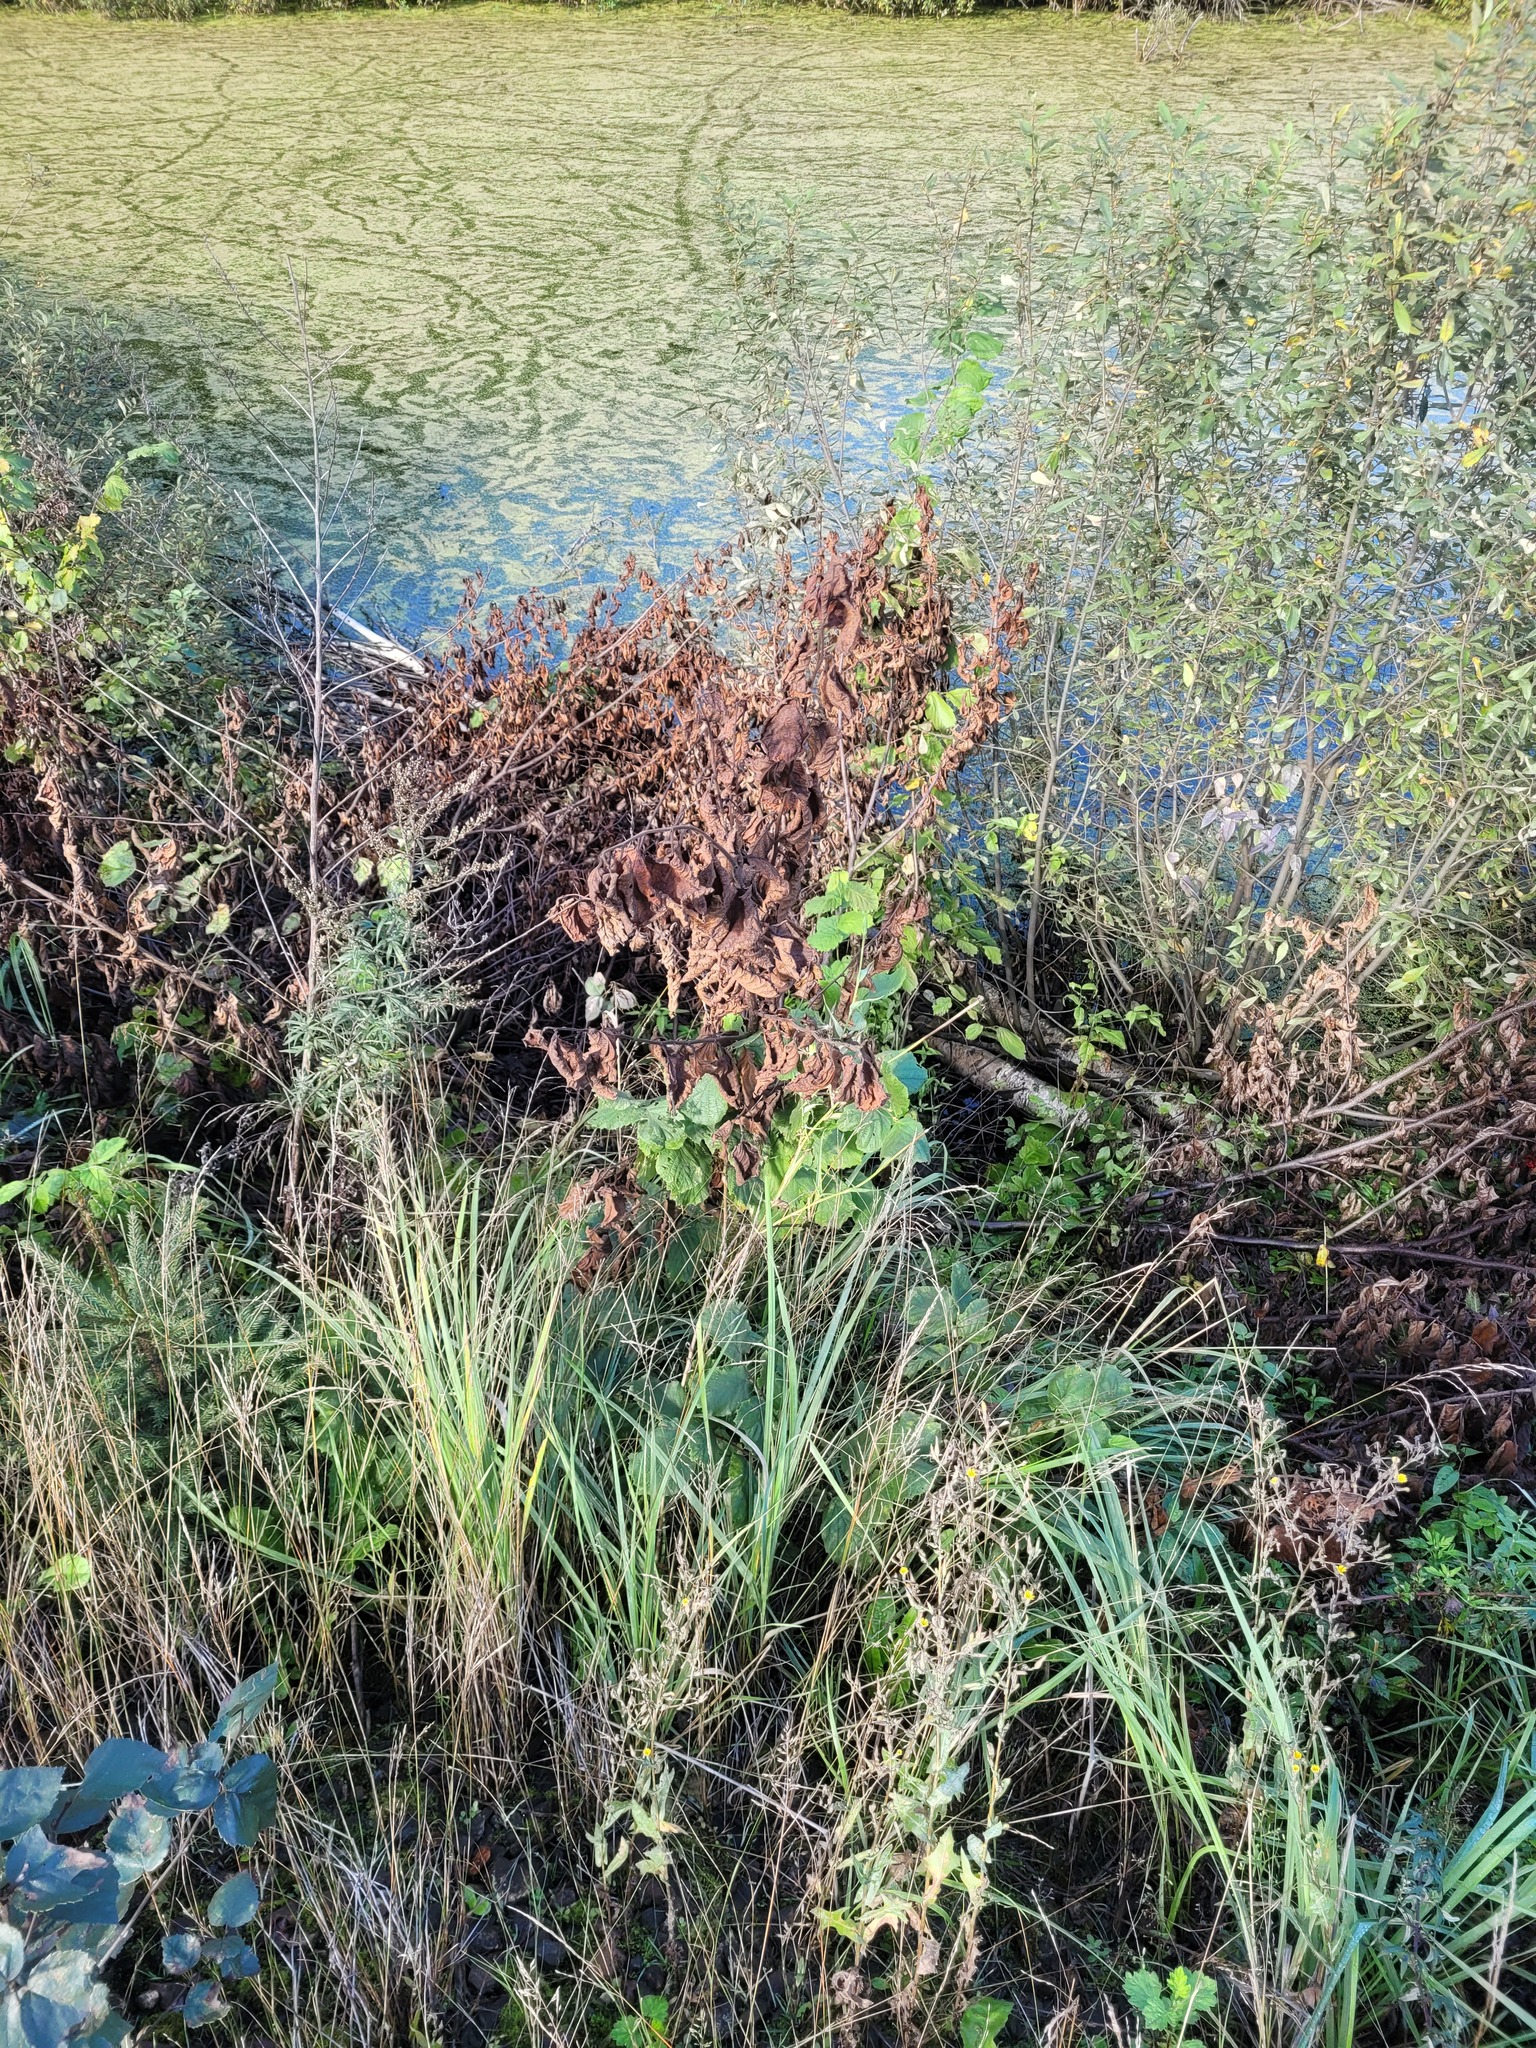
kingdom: Plantae
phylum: Tracheophyta
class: Magnoliopsida
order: Fagales
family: Betulaceae
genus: Corylus
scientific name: Corylus avellana
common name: European hazel
